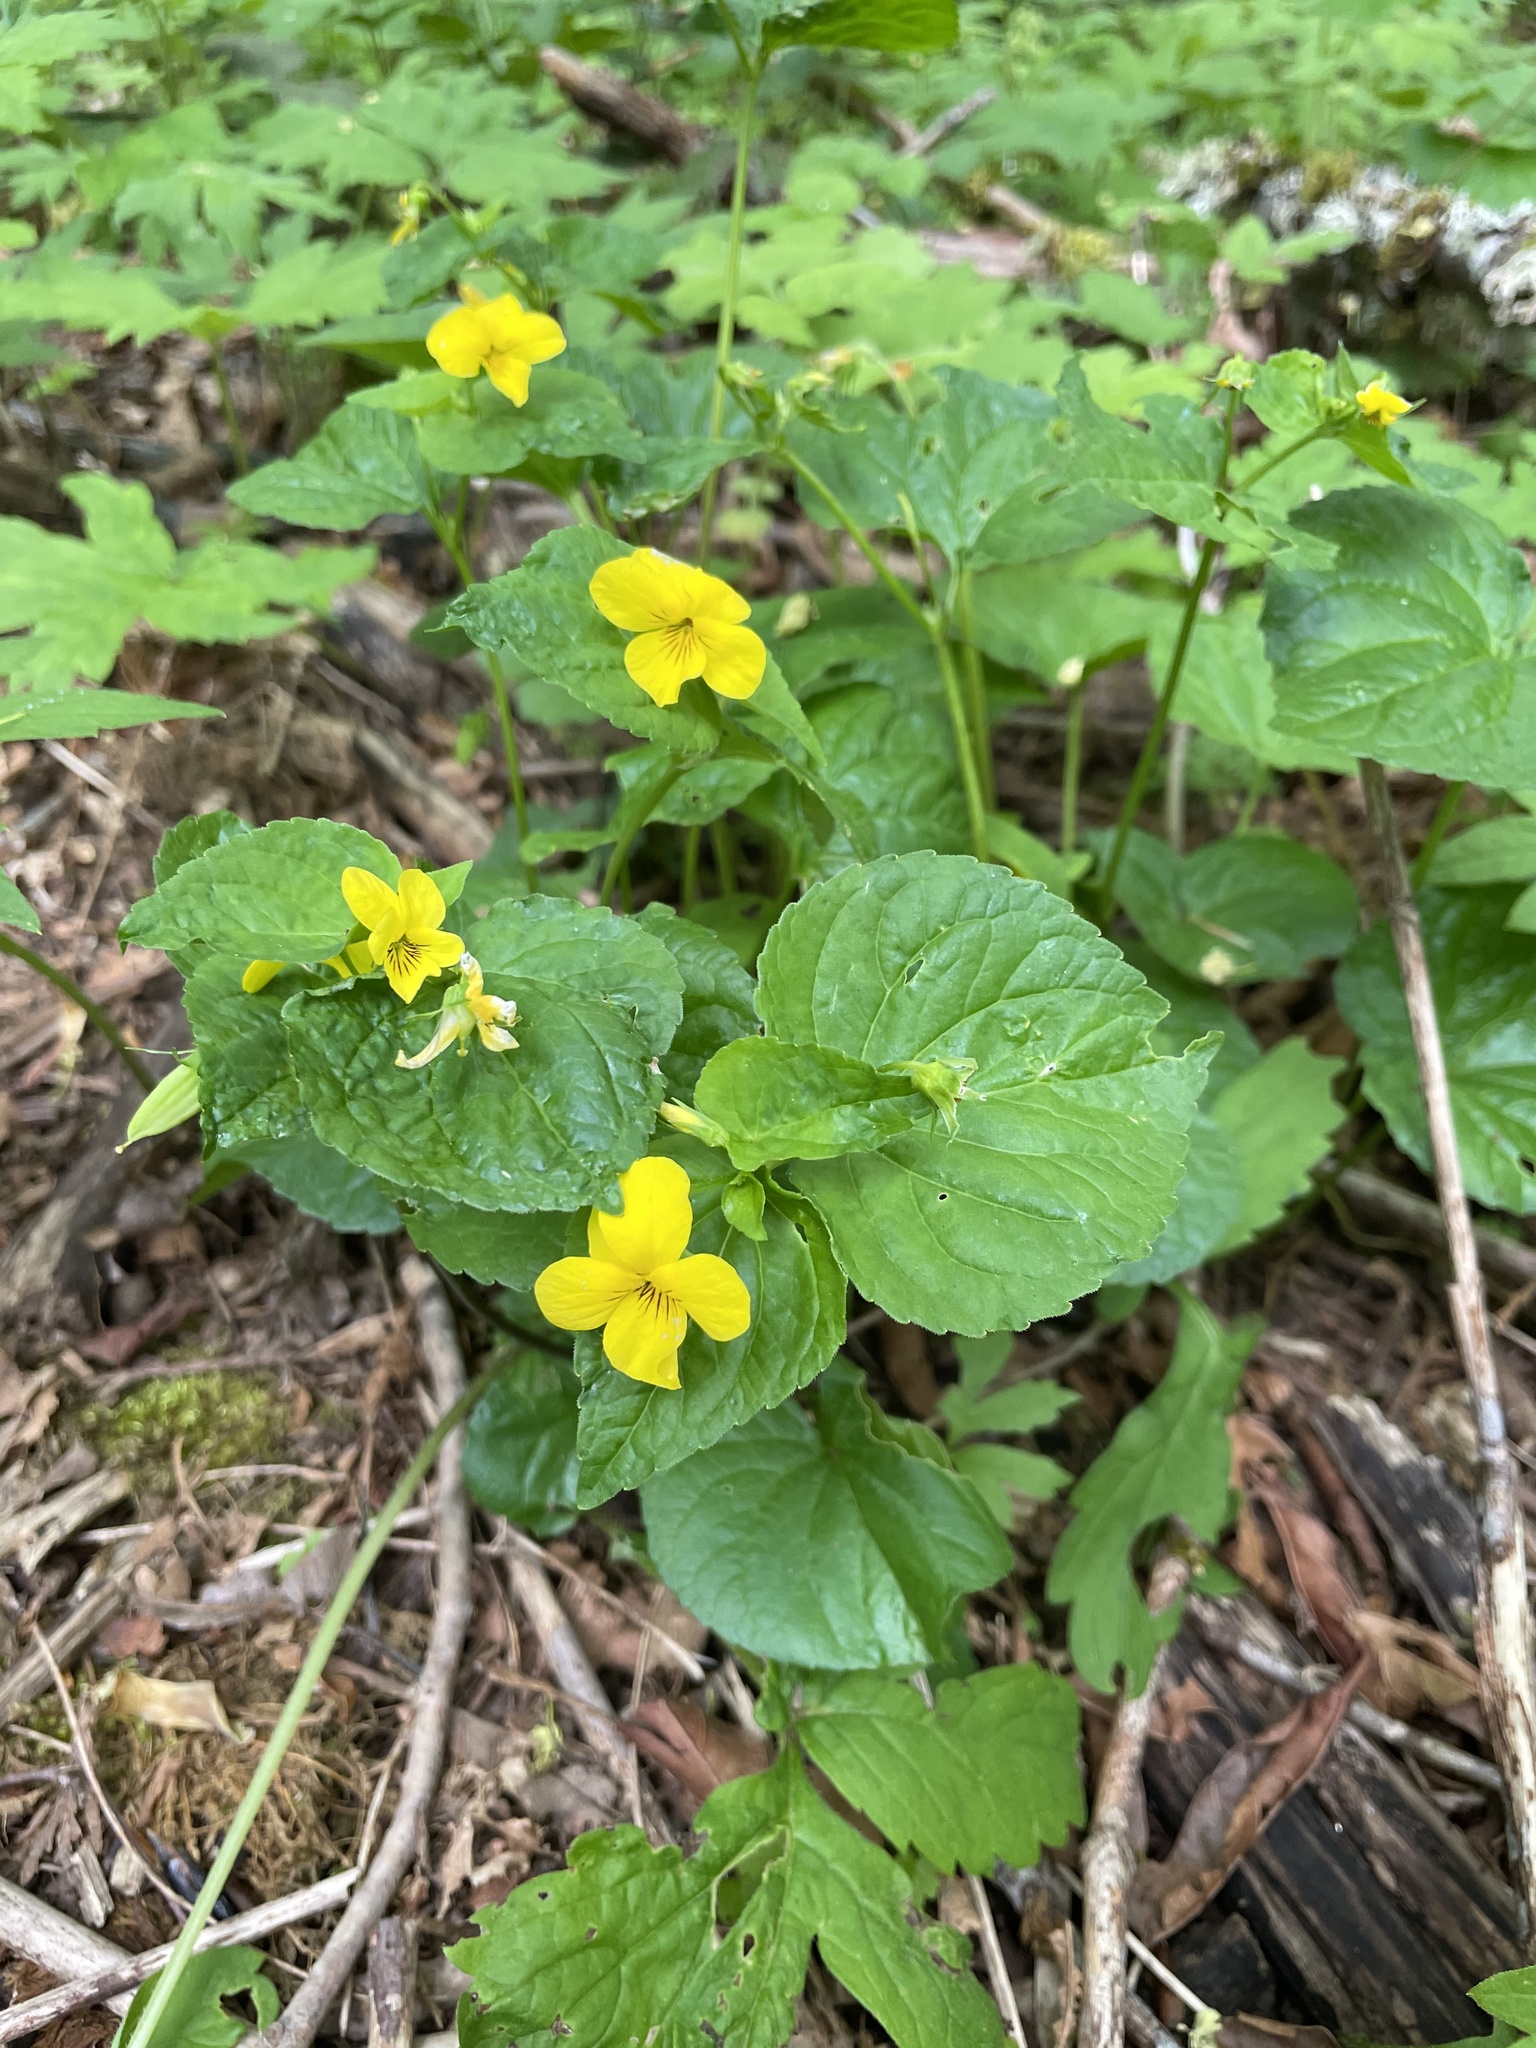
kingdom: Plantae
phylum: Tracheophyta
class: Magnoliopsida
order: Malpighiales
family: Violaceae
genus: Viola
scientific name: Viola glabella
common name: Stream violet
